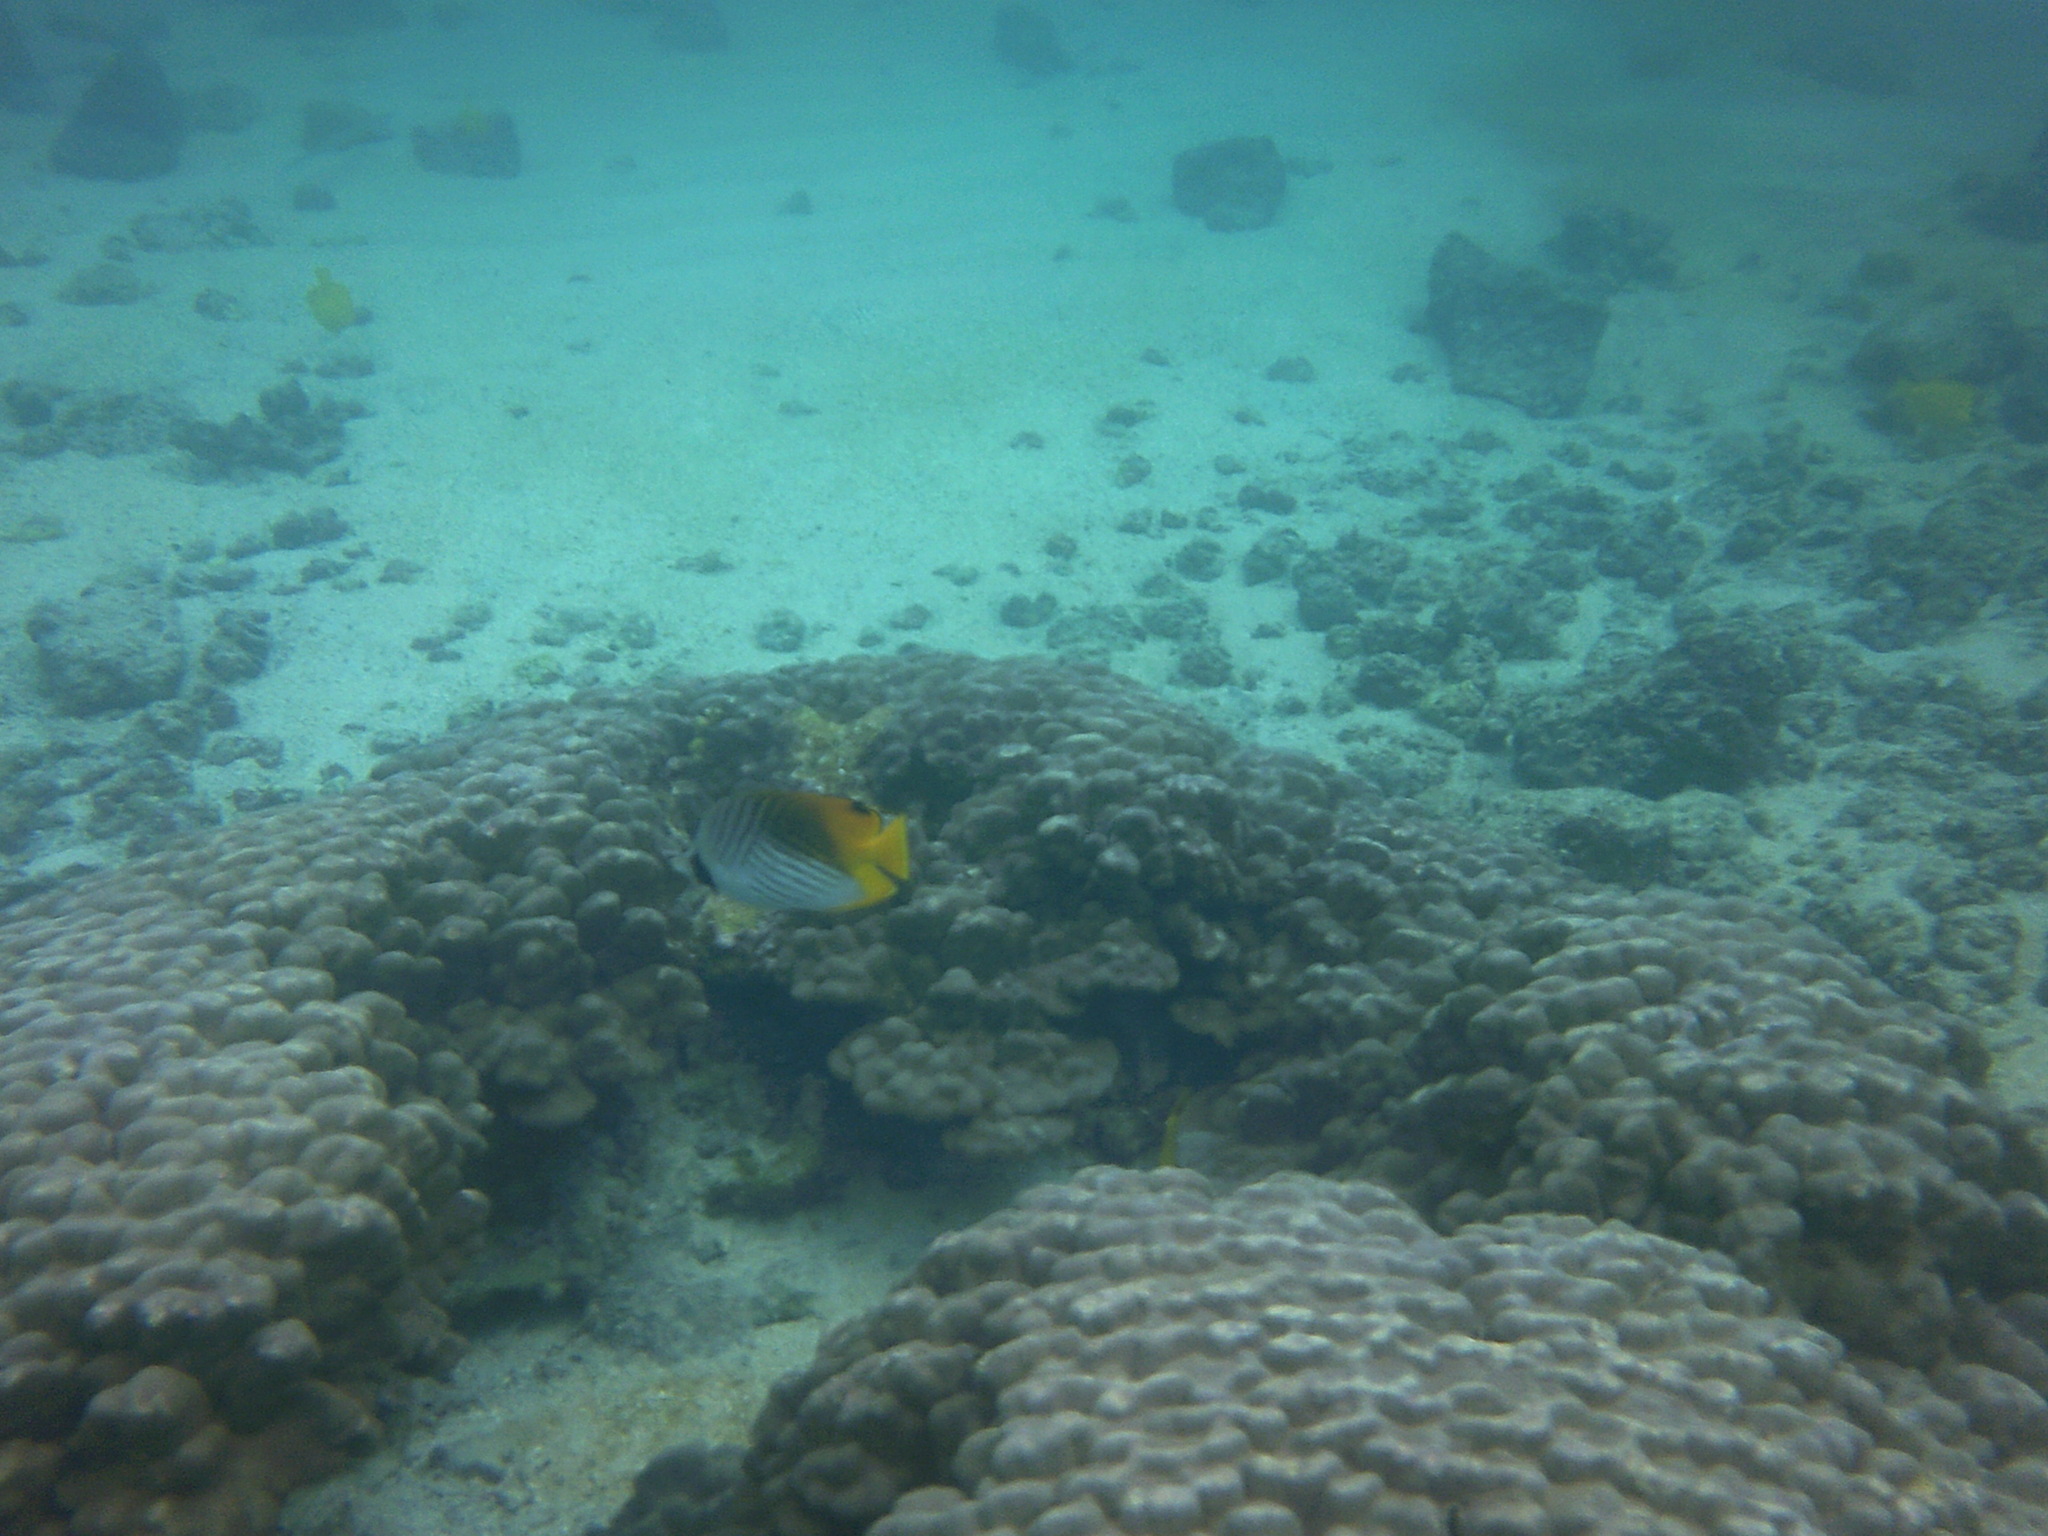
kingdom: Animalia
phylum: Chordata
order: Perciformes
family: Chaetodontidae
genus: Chaetodon
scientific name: Chaetodon auriga
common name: Threadfin butterflyfish
